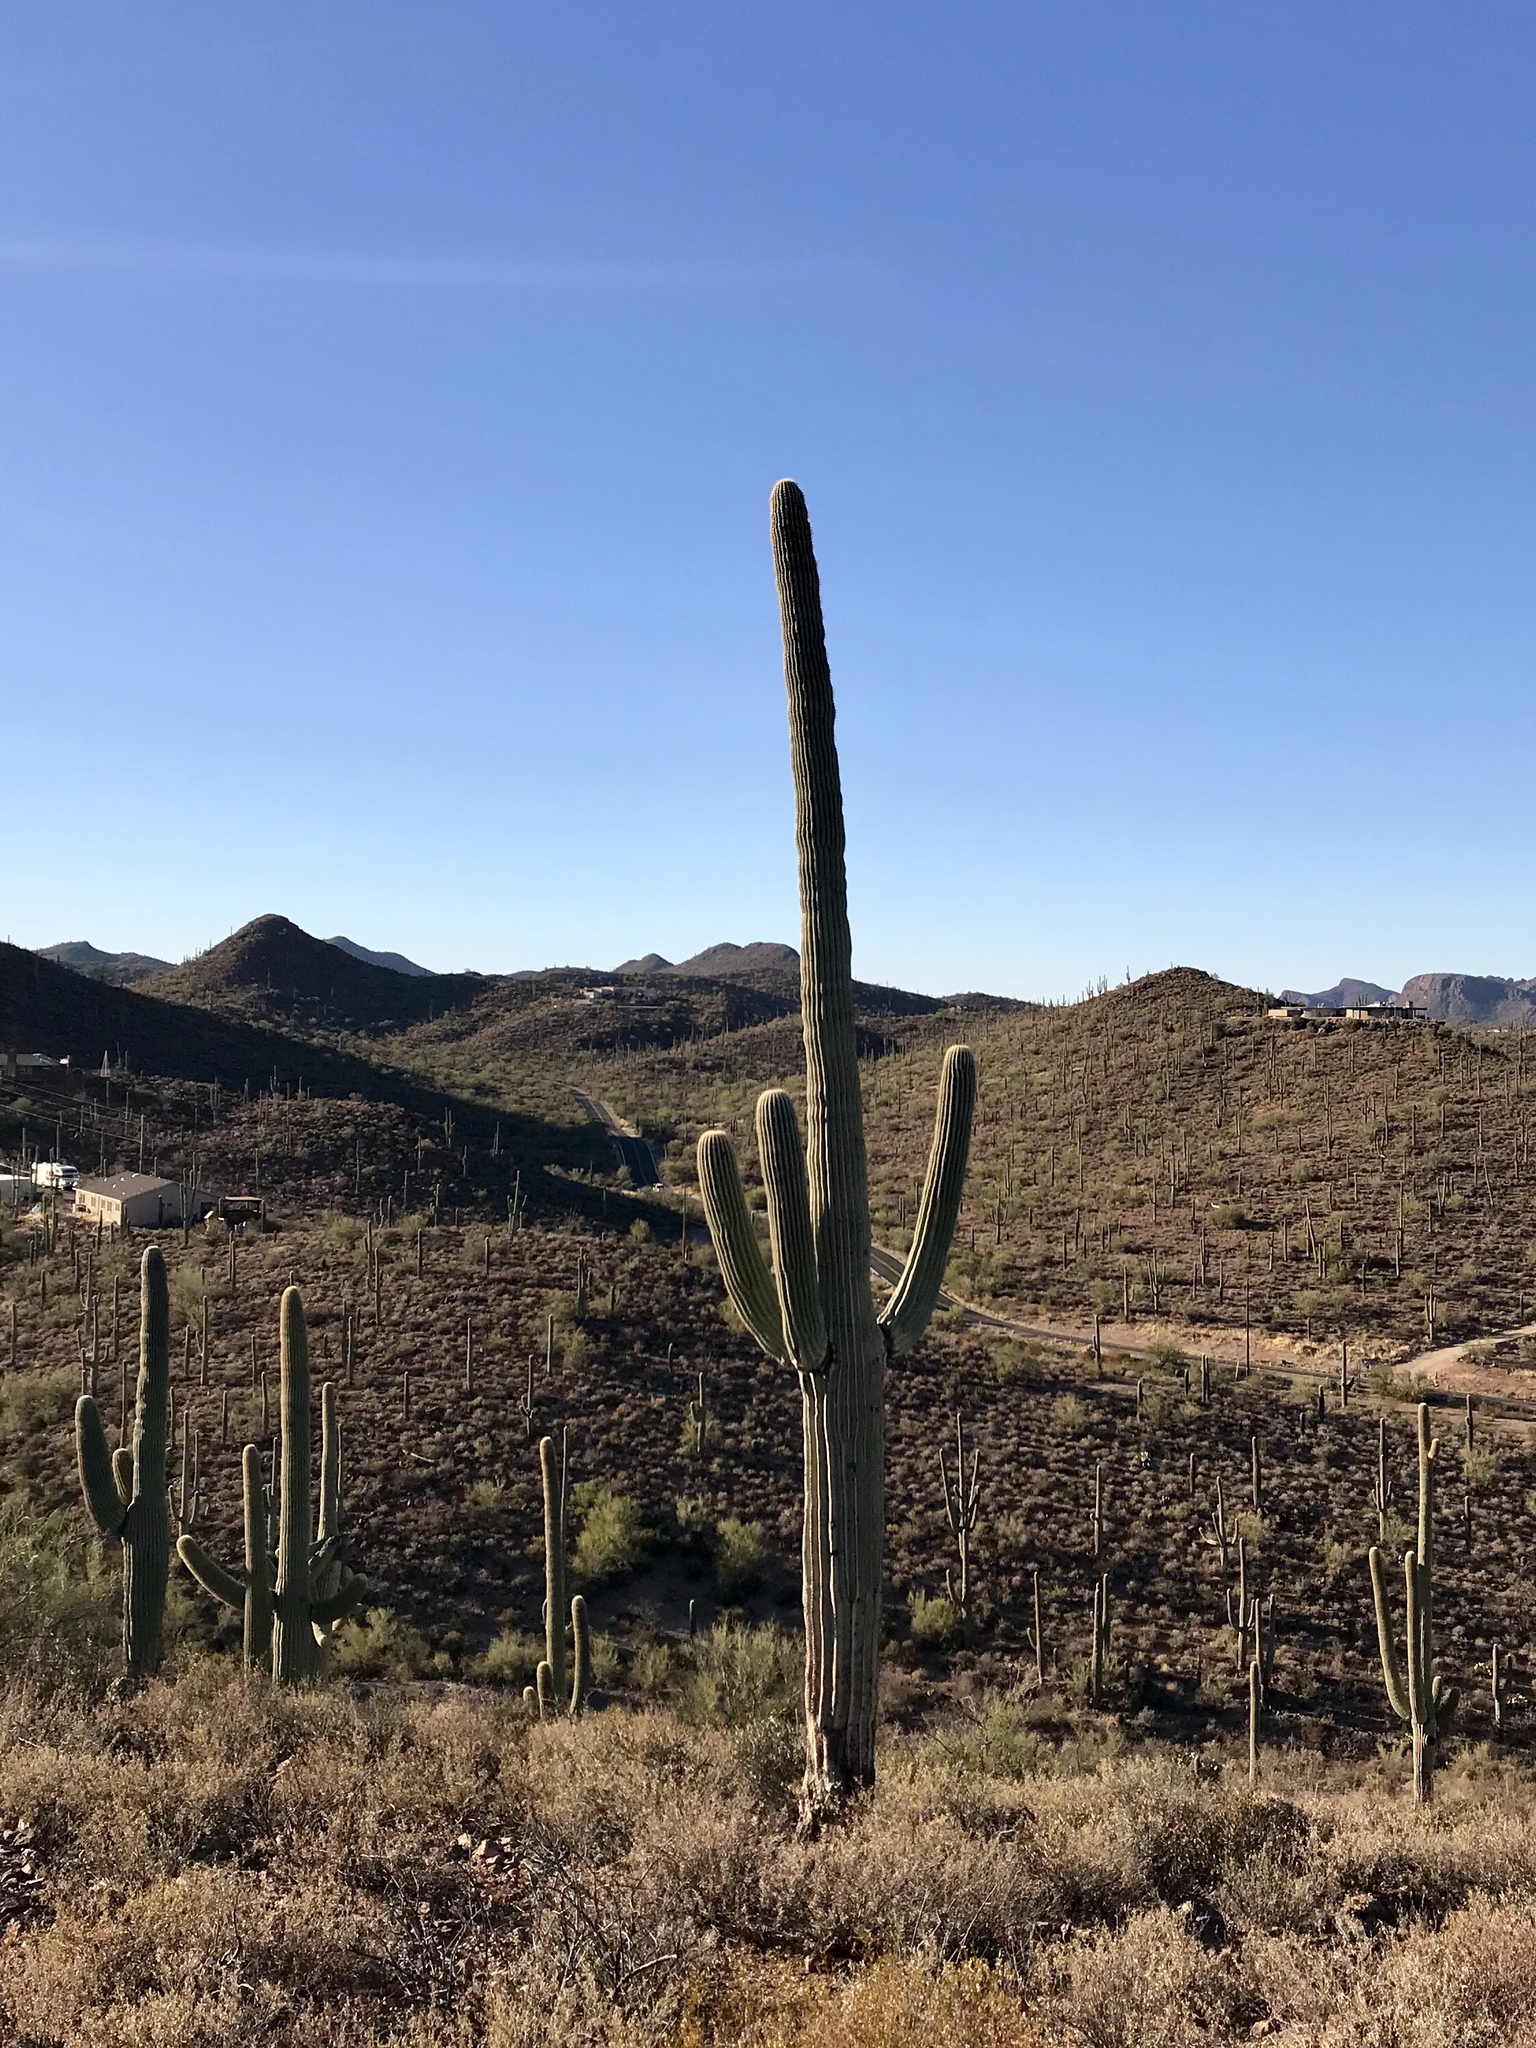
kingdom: Plantae
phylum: Tracheophyta
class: Magnoliopsida
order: Caryophyllales
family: Cactaceae
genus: Carnegiea
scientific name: Carnegiea gigantea
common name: Saguaro
